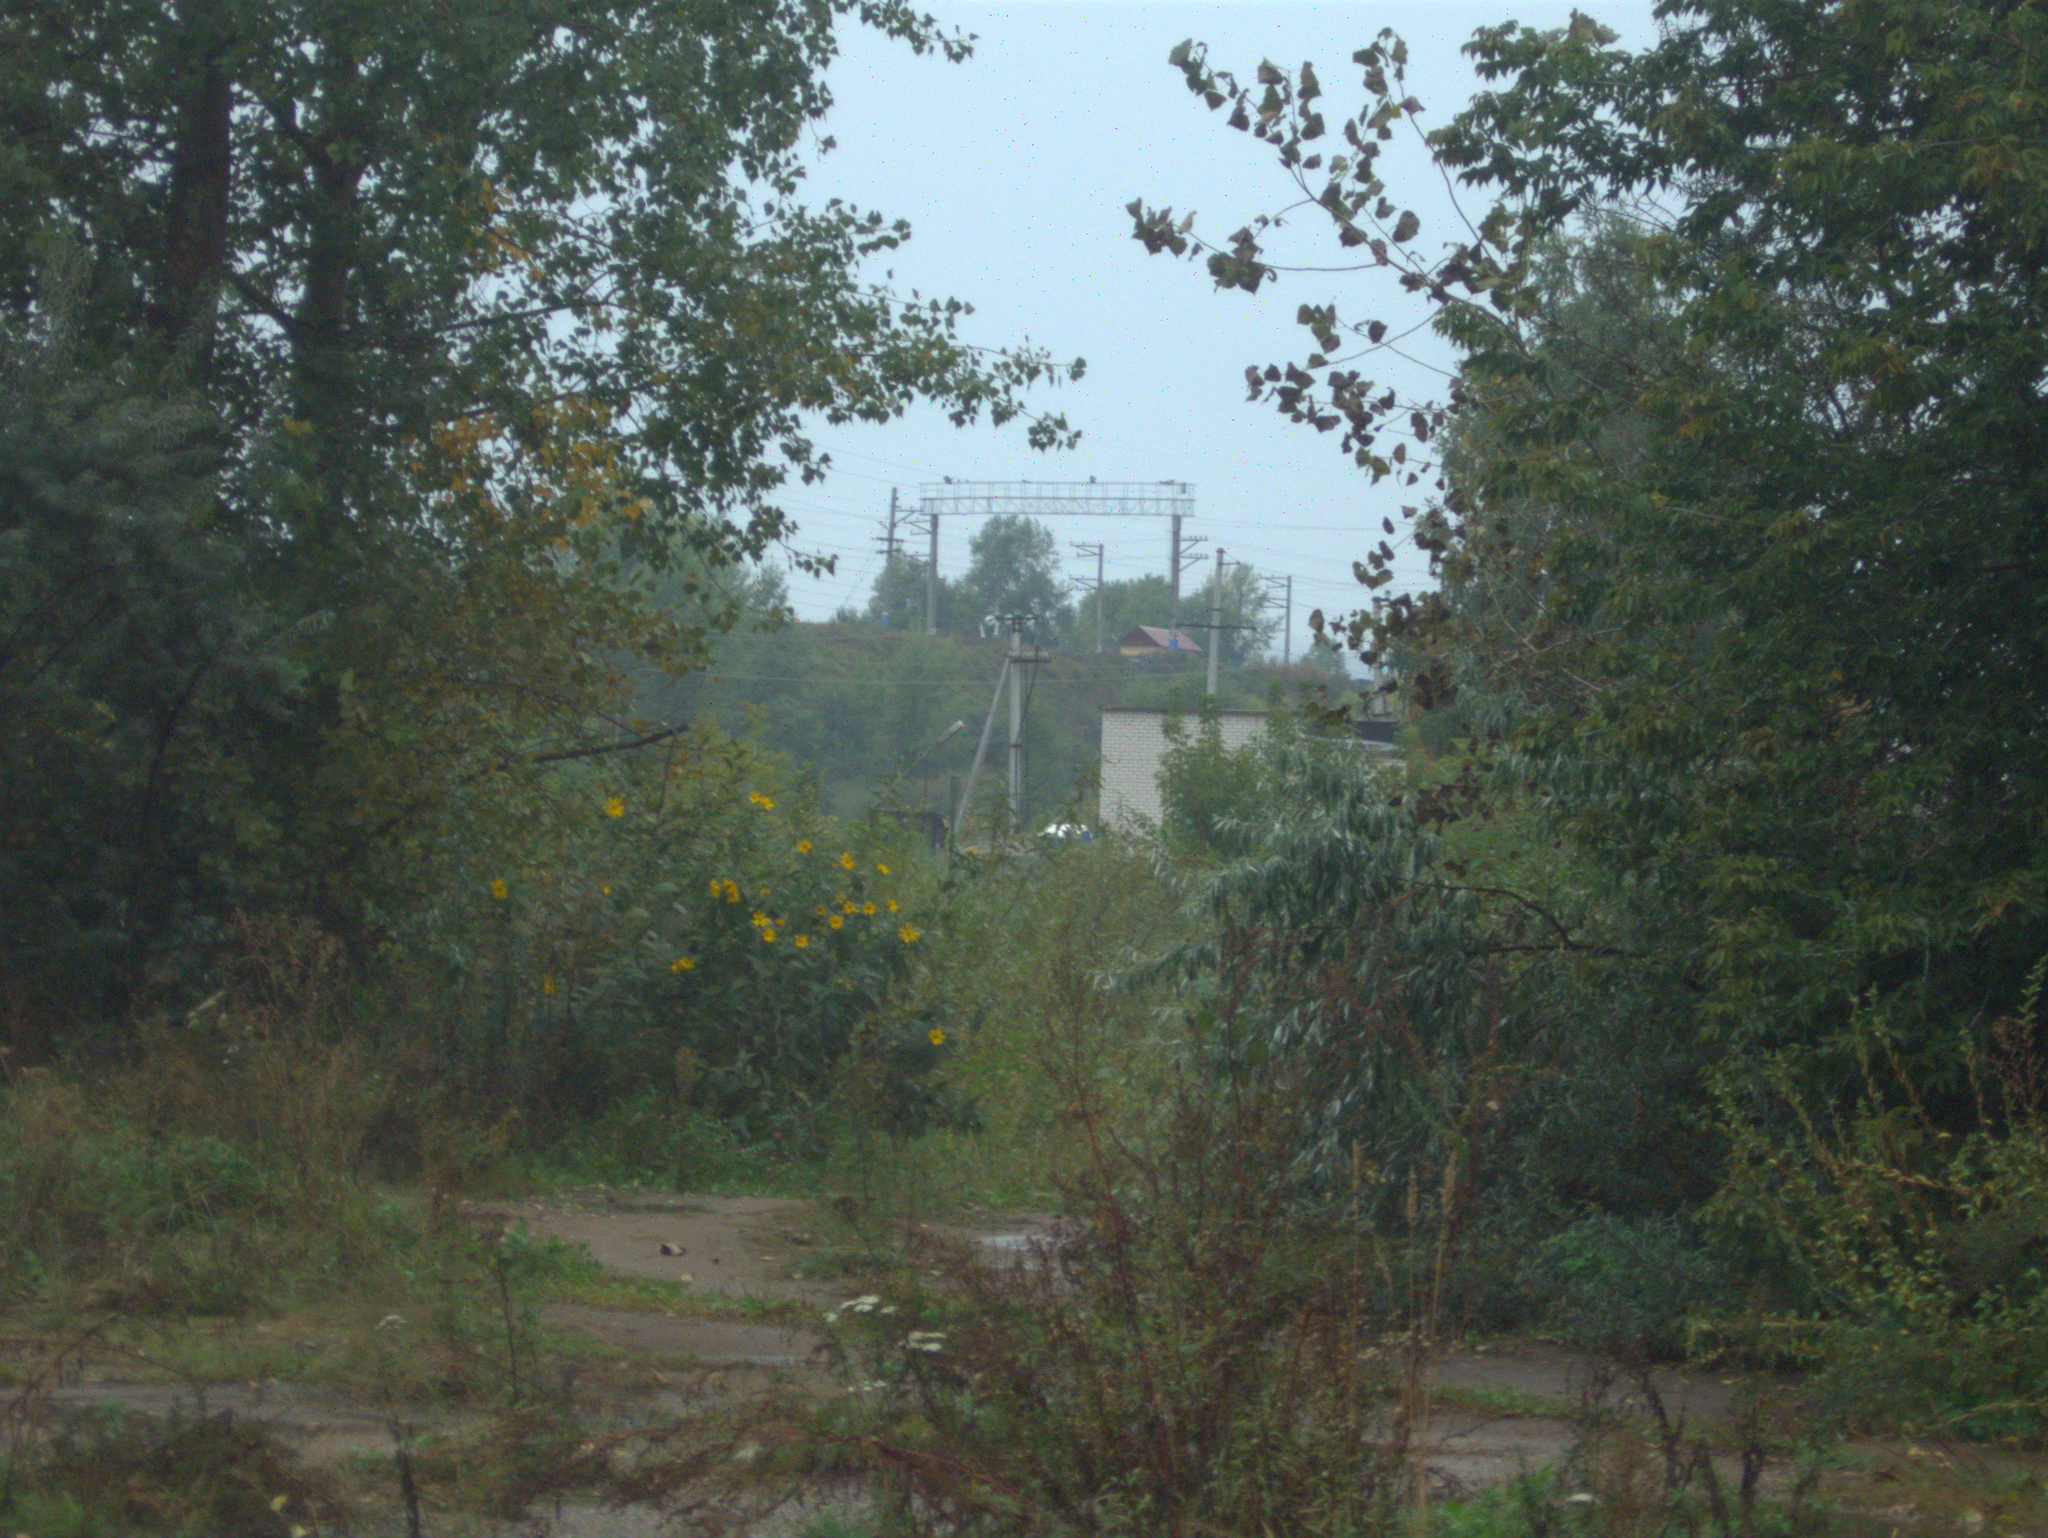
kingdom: Plantae
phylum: Tracheophyta
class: Magnoliopsida
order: Asterales
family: Asteraceae
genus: Helianthus
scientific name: Helianthus tuberosus
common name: Jerusalem artichoke
